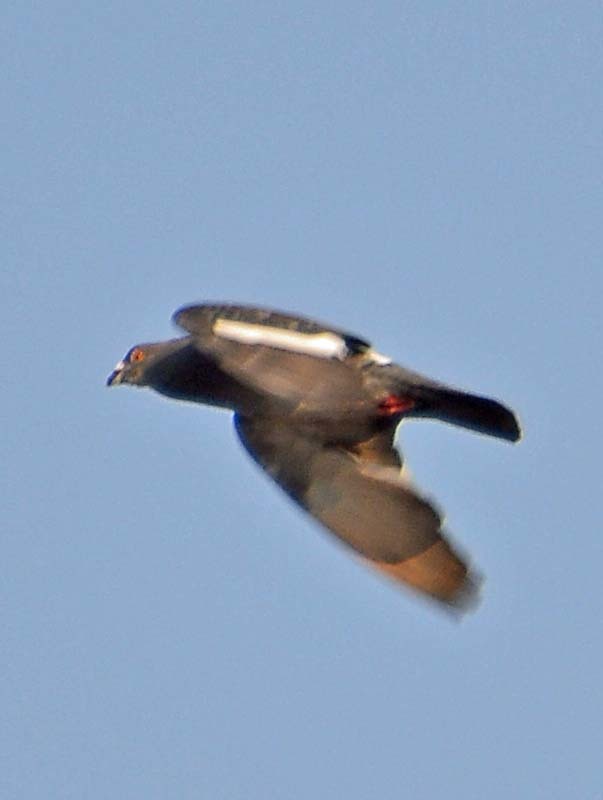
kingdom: Animalia
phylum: Chordata
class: Aves
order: Columbiformes
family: Columbidae
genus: Columba
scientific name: Columba livia
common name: Rock pigeon
